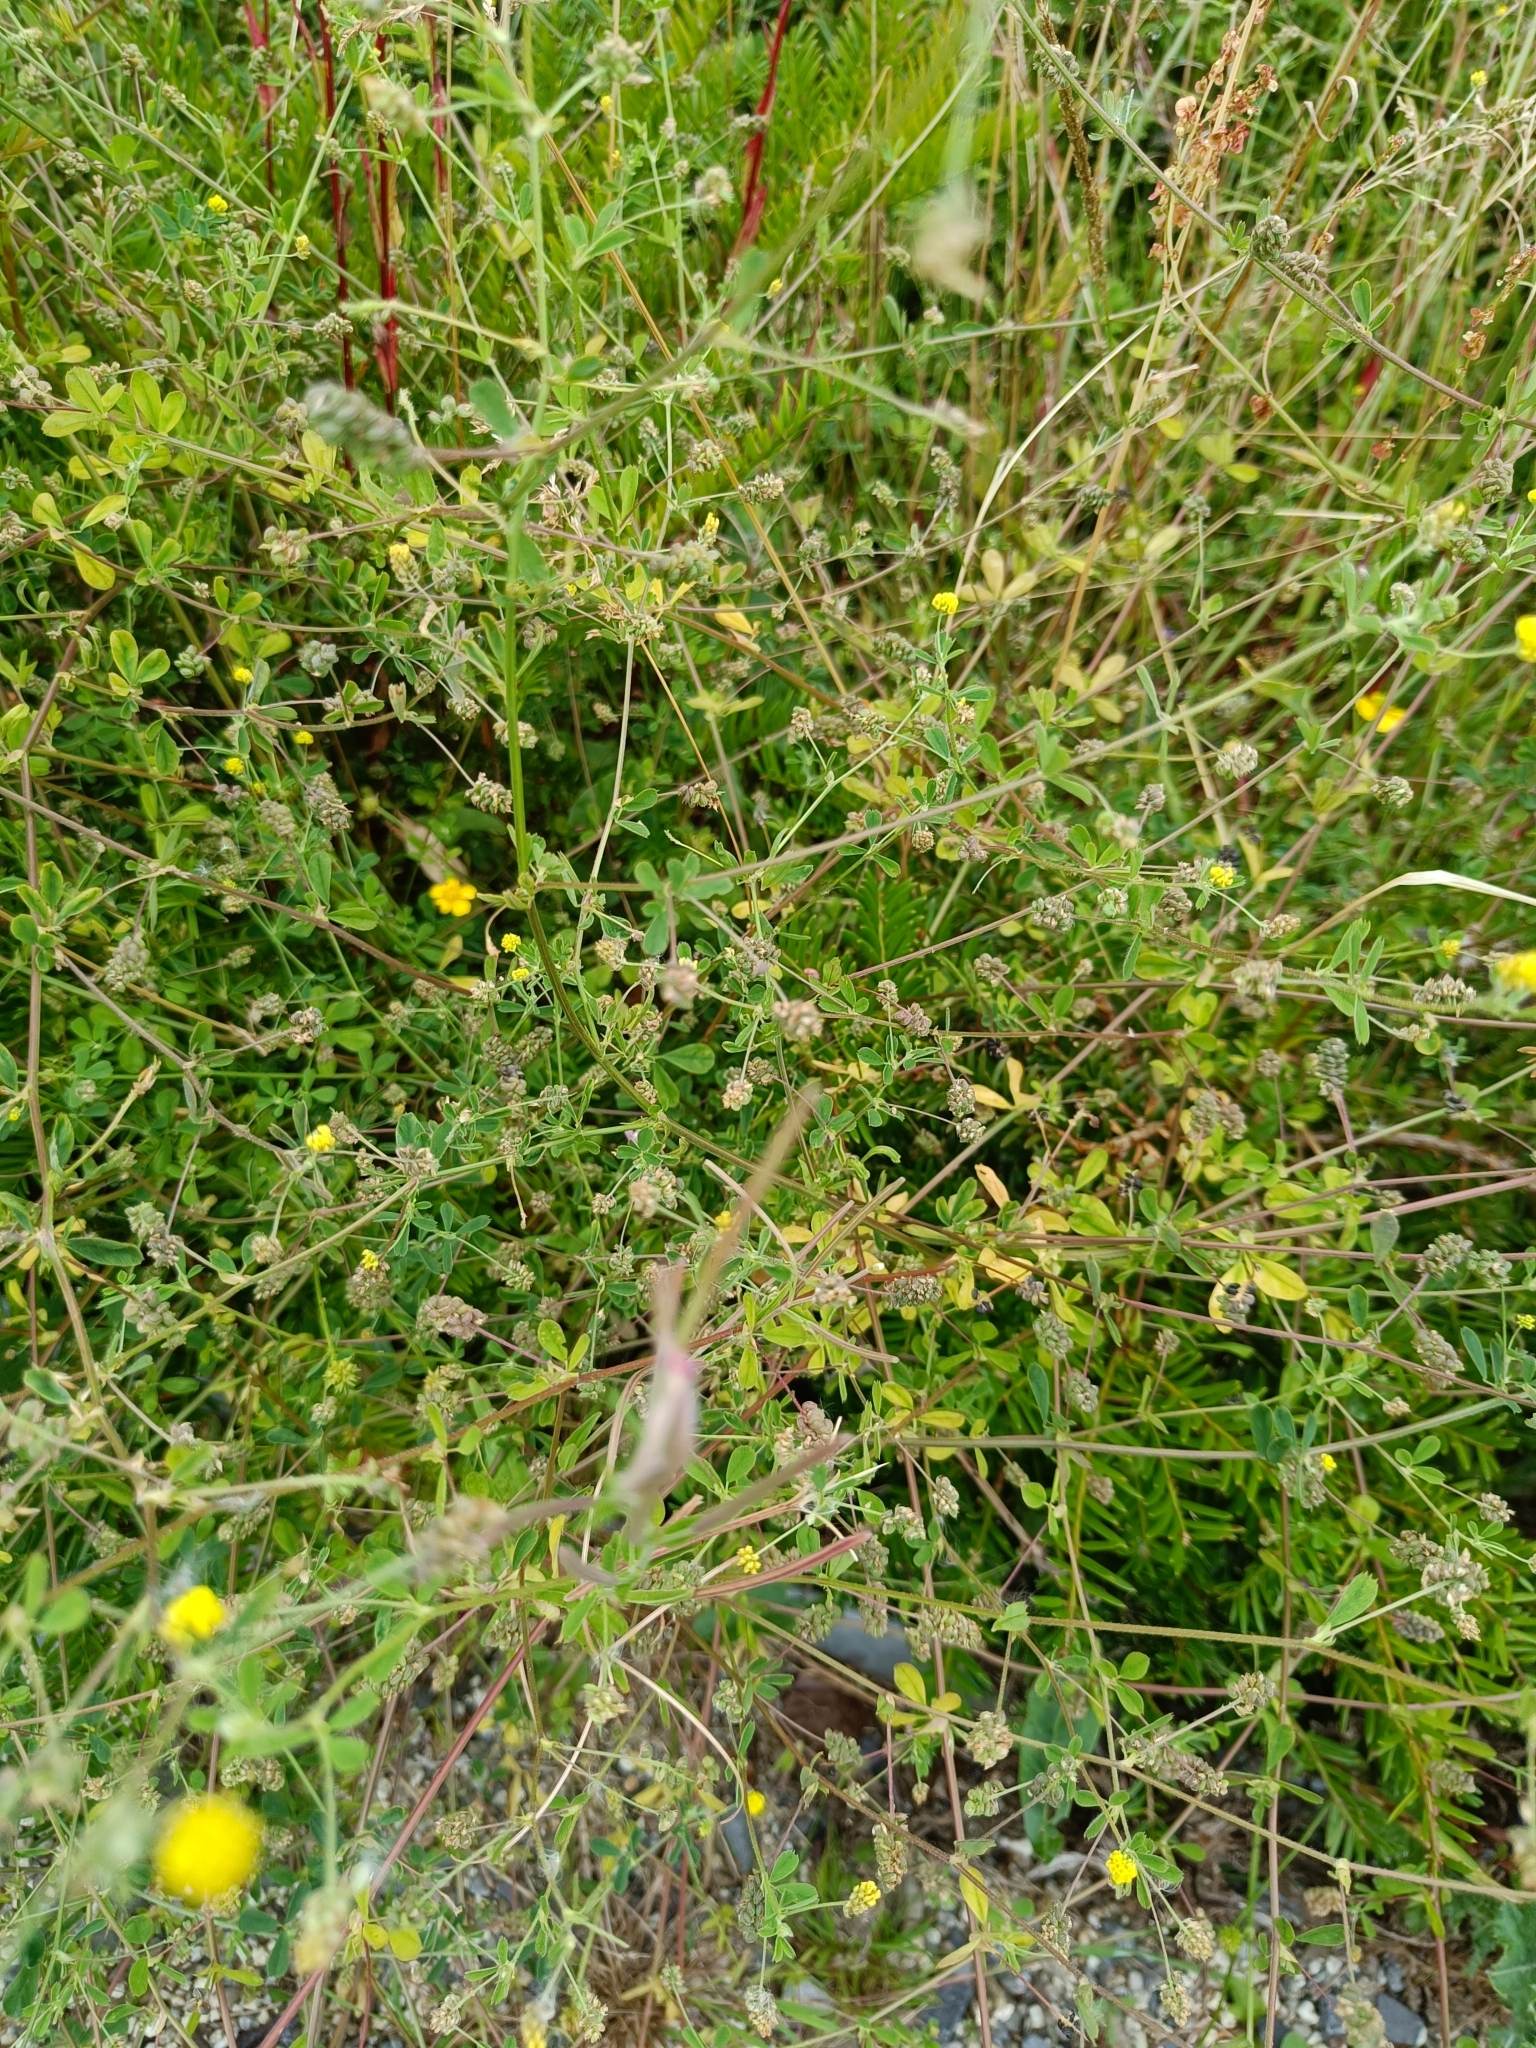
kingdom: Plantae
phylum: Tracheophyta
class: Magnoliopsida
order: Fabales
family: Fabaceae
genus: Medicago
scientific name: Medicago lupulina
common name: Black medick
